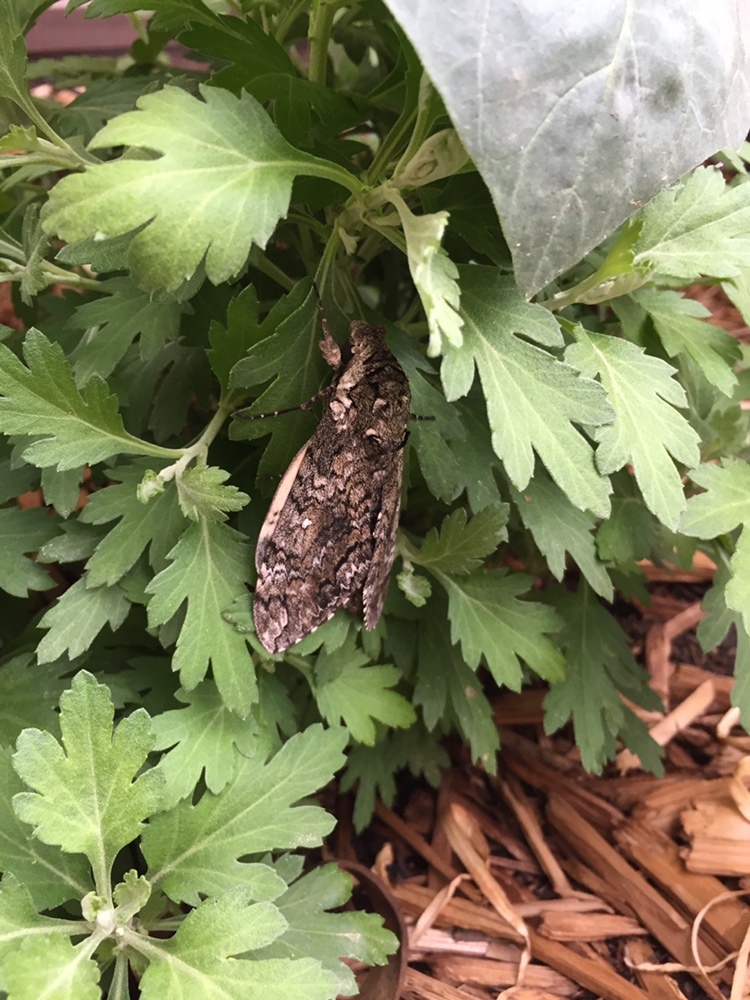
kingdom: Animalia
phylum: Arthropoda
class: Insecta
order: Lepidoptera
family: Sphingidae
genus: Manduca
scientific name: Manduca sexta
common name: Carolina sphinx
